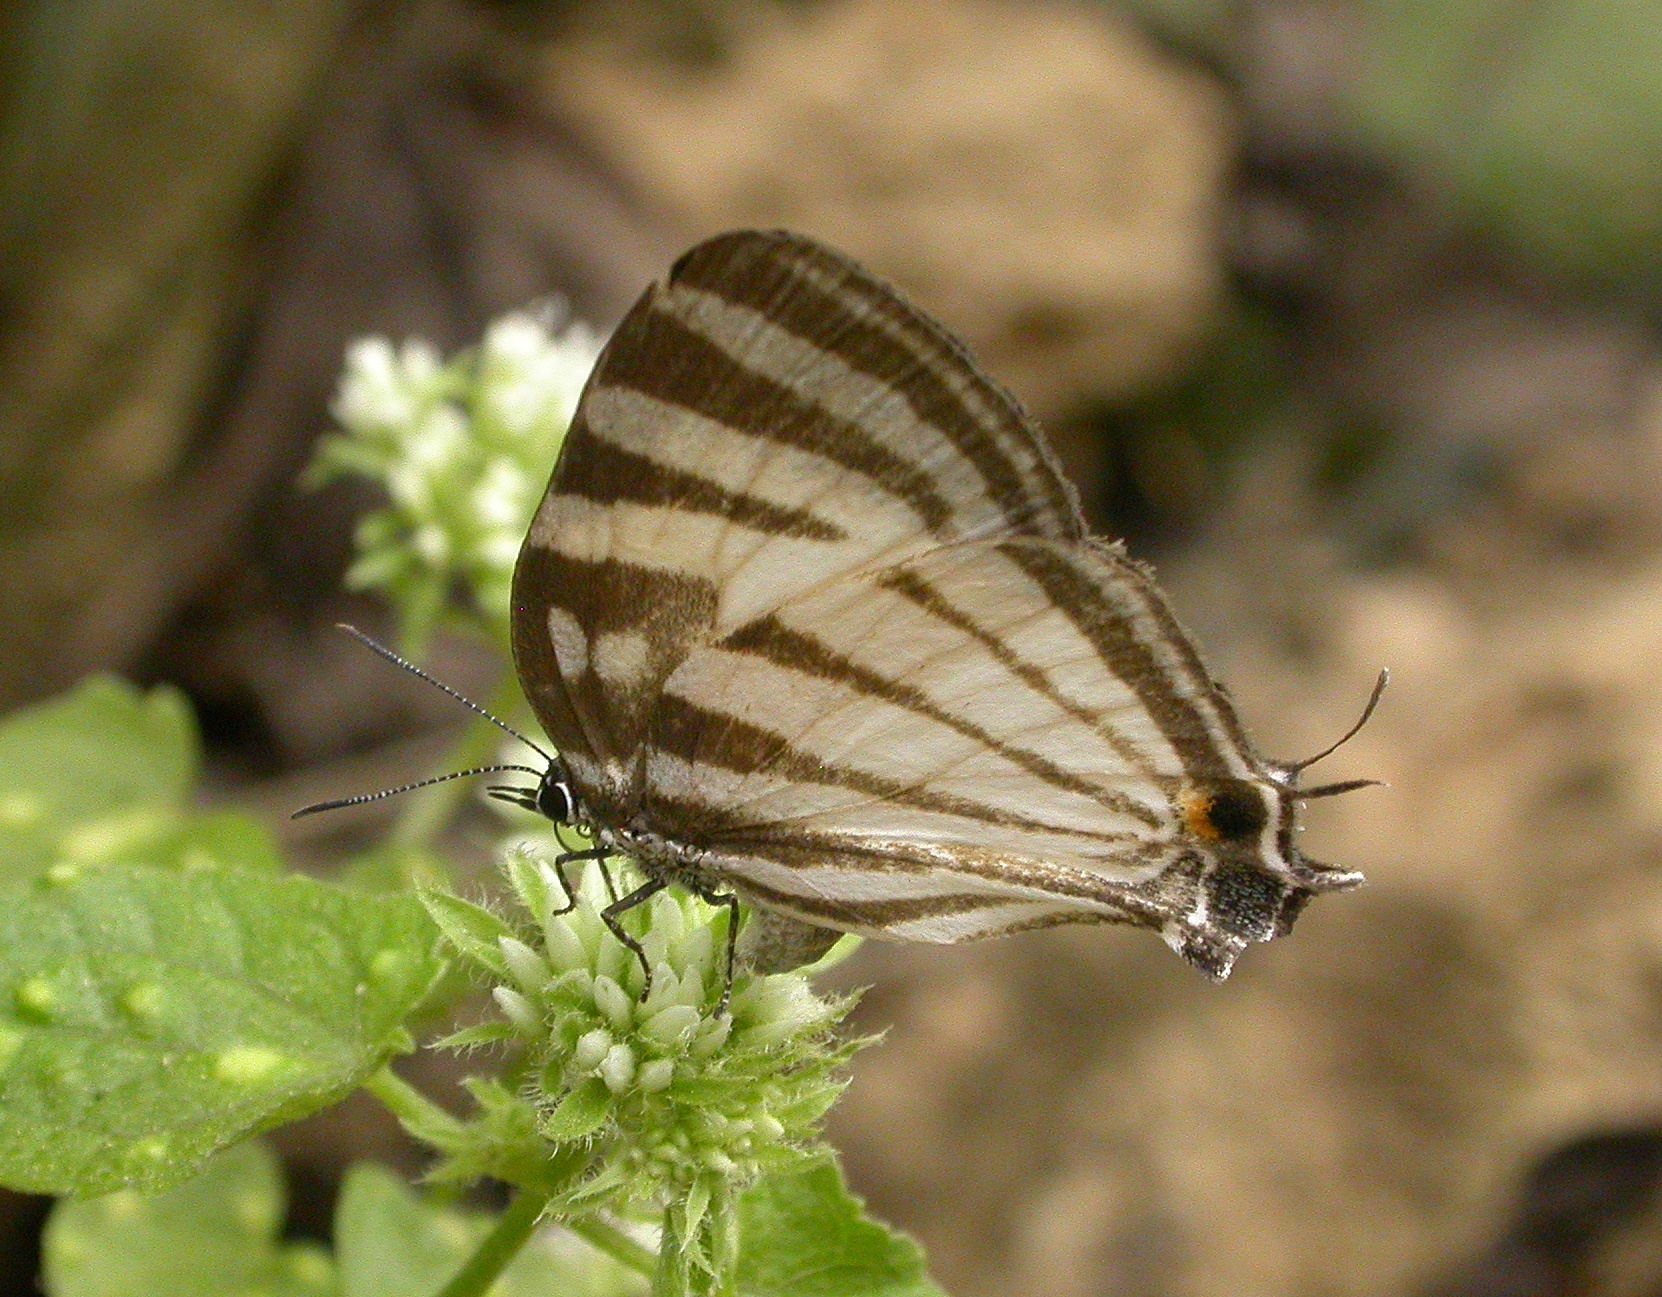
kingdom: Animalia
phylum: Arthropoda
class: Insecta
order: Lepidoptera
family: Lycaenidae
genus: Laothus
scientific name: Laothus gibberosa
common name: Great stripestreak
